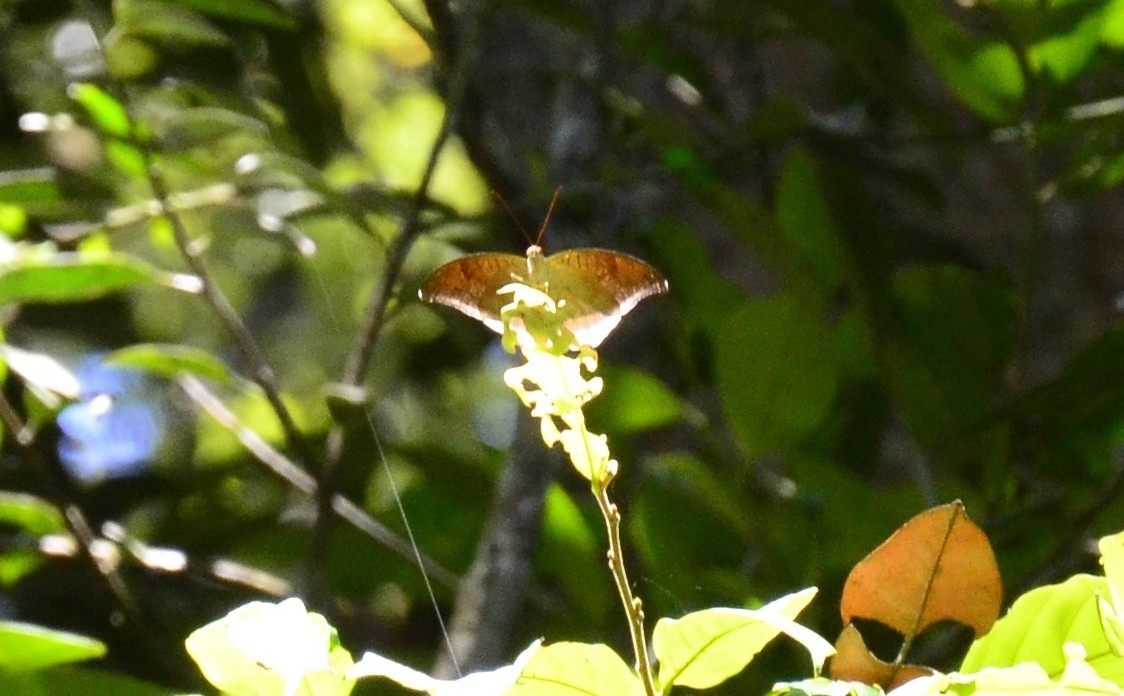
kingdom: Animalia
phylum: Arthropoda
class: Insecta
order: Lepidoptera
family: Nymphalidae
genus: Tanaecia
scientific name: Tanaecia lepidea
